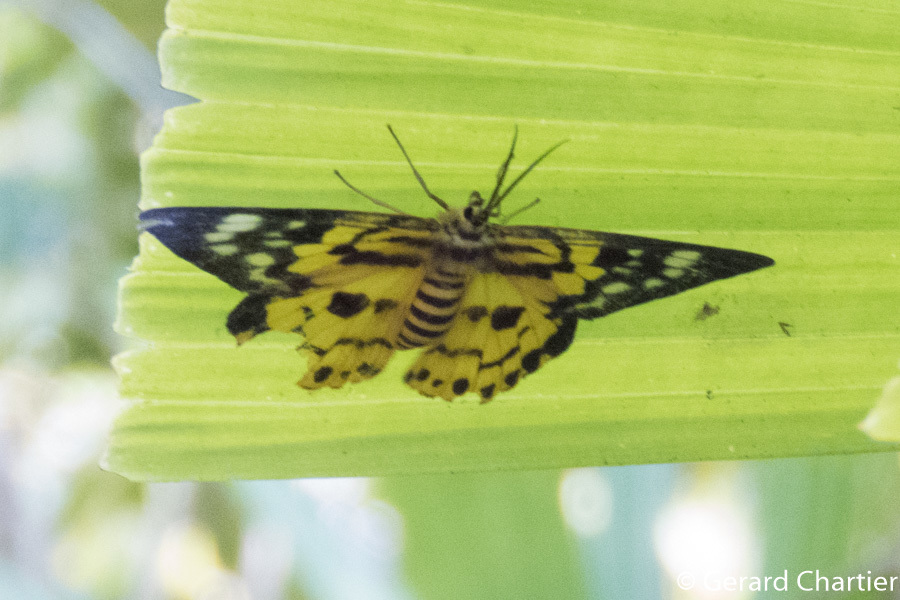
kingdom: Animalia
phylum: Arthropoda
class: Insecta
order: Lepidoptera
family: Geometridae
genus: Dysphania
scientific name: Dysphania militaris
